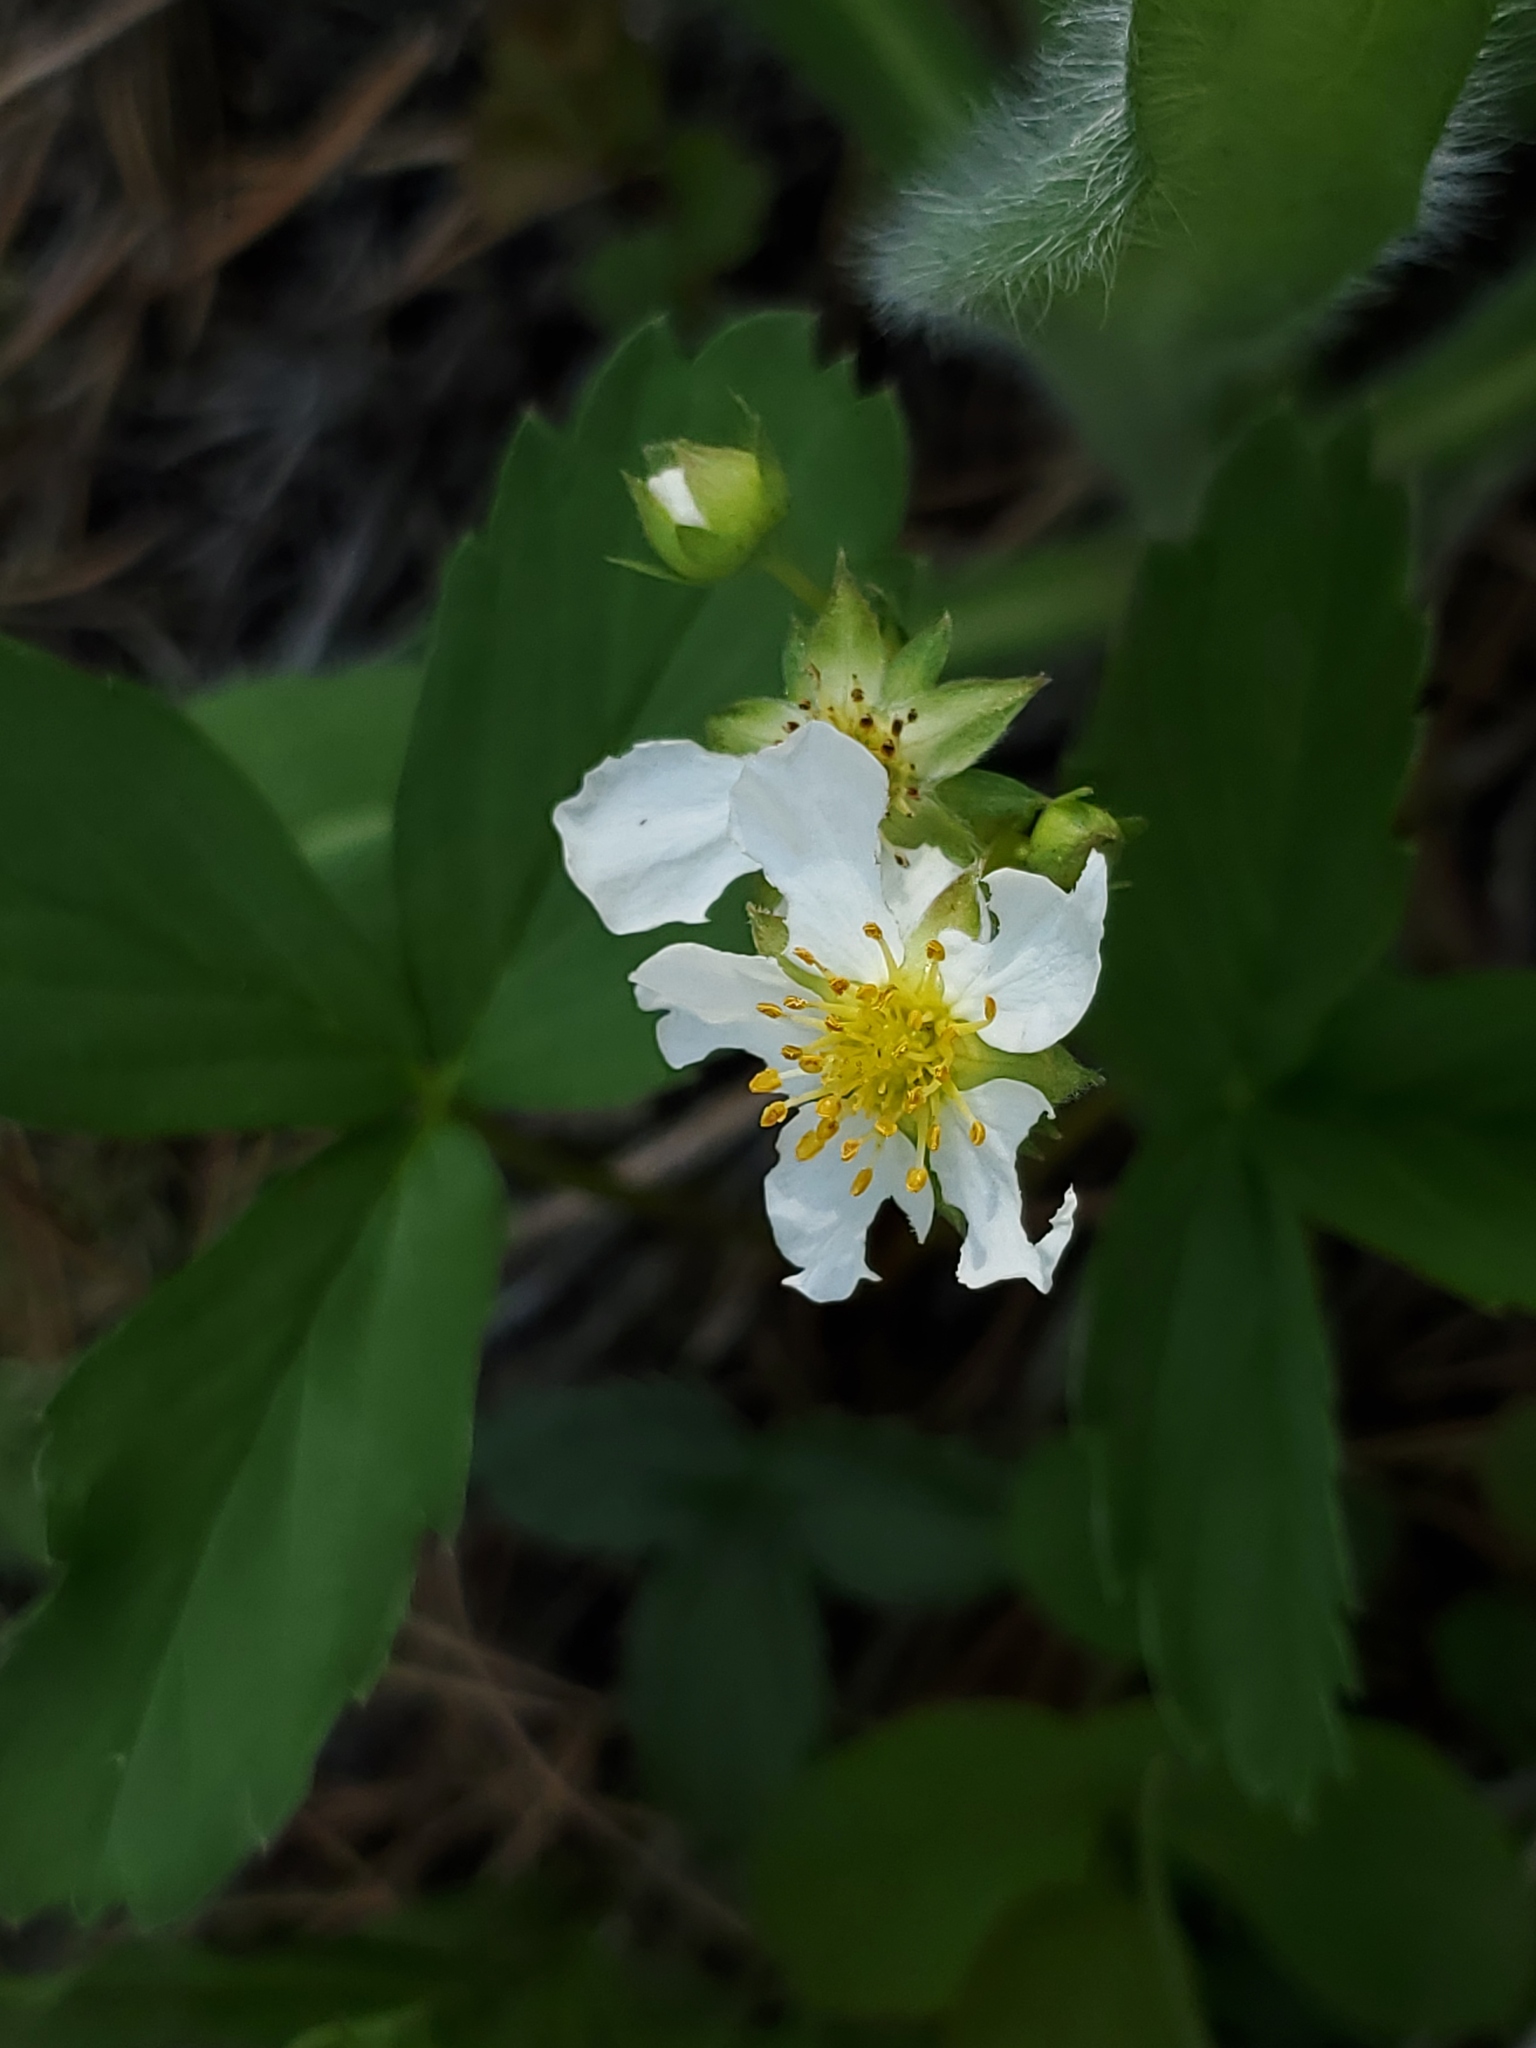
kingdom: Plantae
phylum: Tracheophyta
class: Magnoliopsida
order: Rosales
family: Rosaceae
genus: Fragaria
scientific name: Fragaria virginiana
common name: Thickleaved wild strawberry
